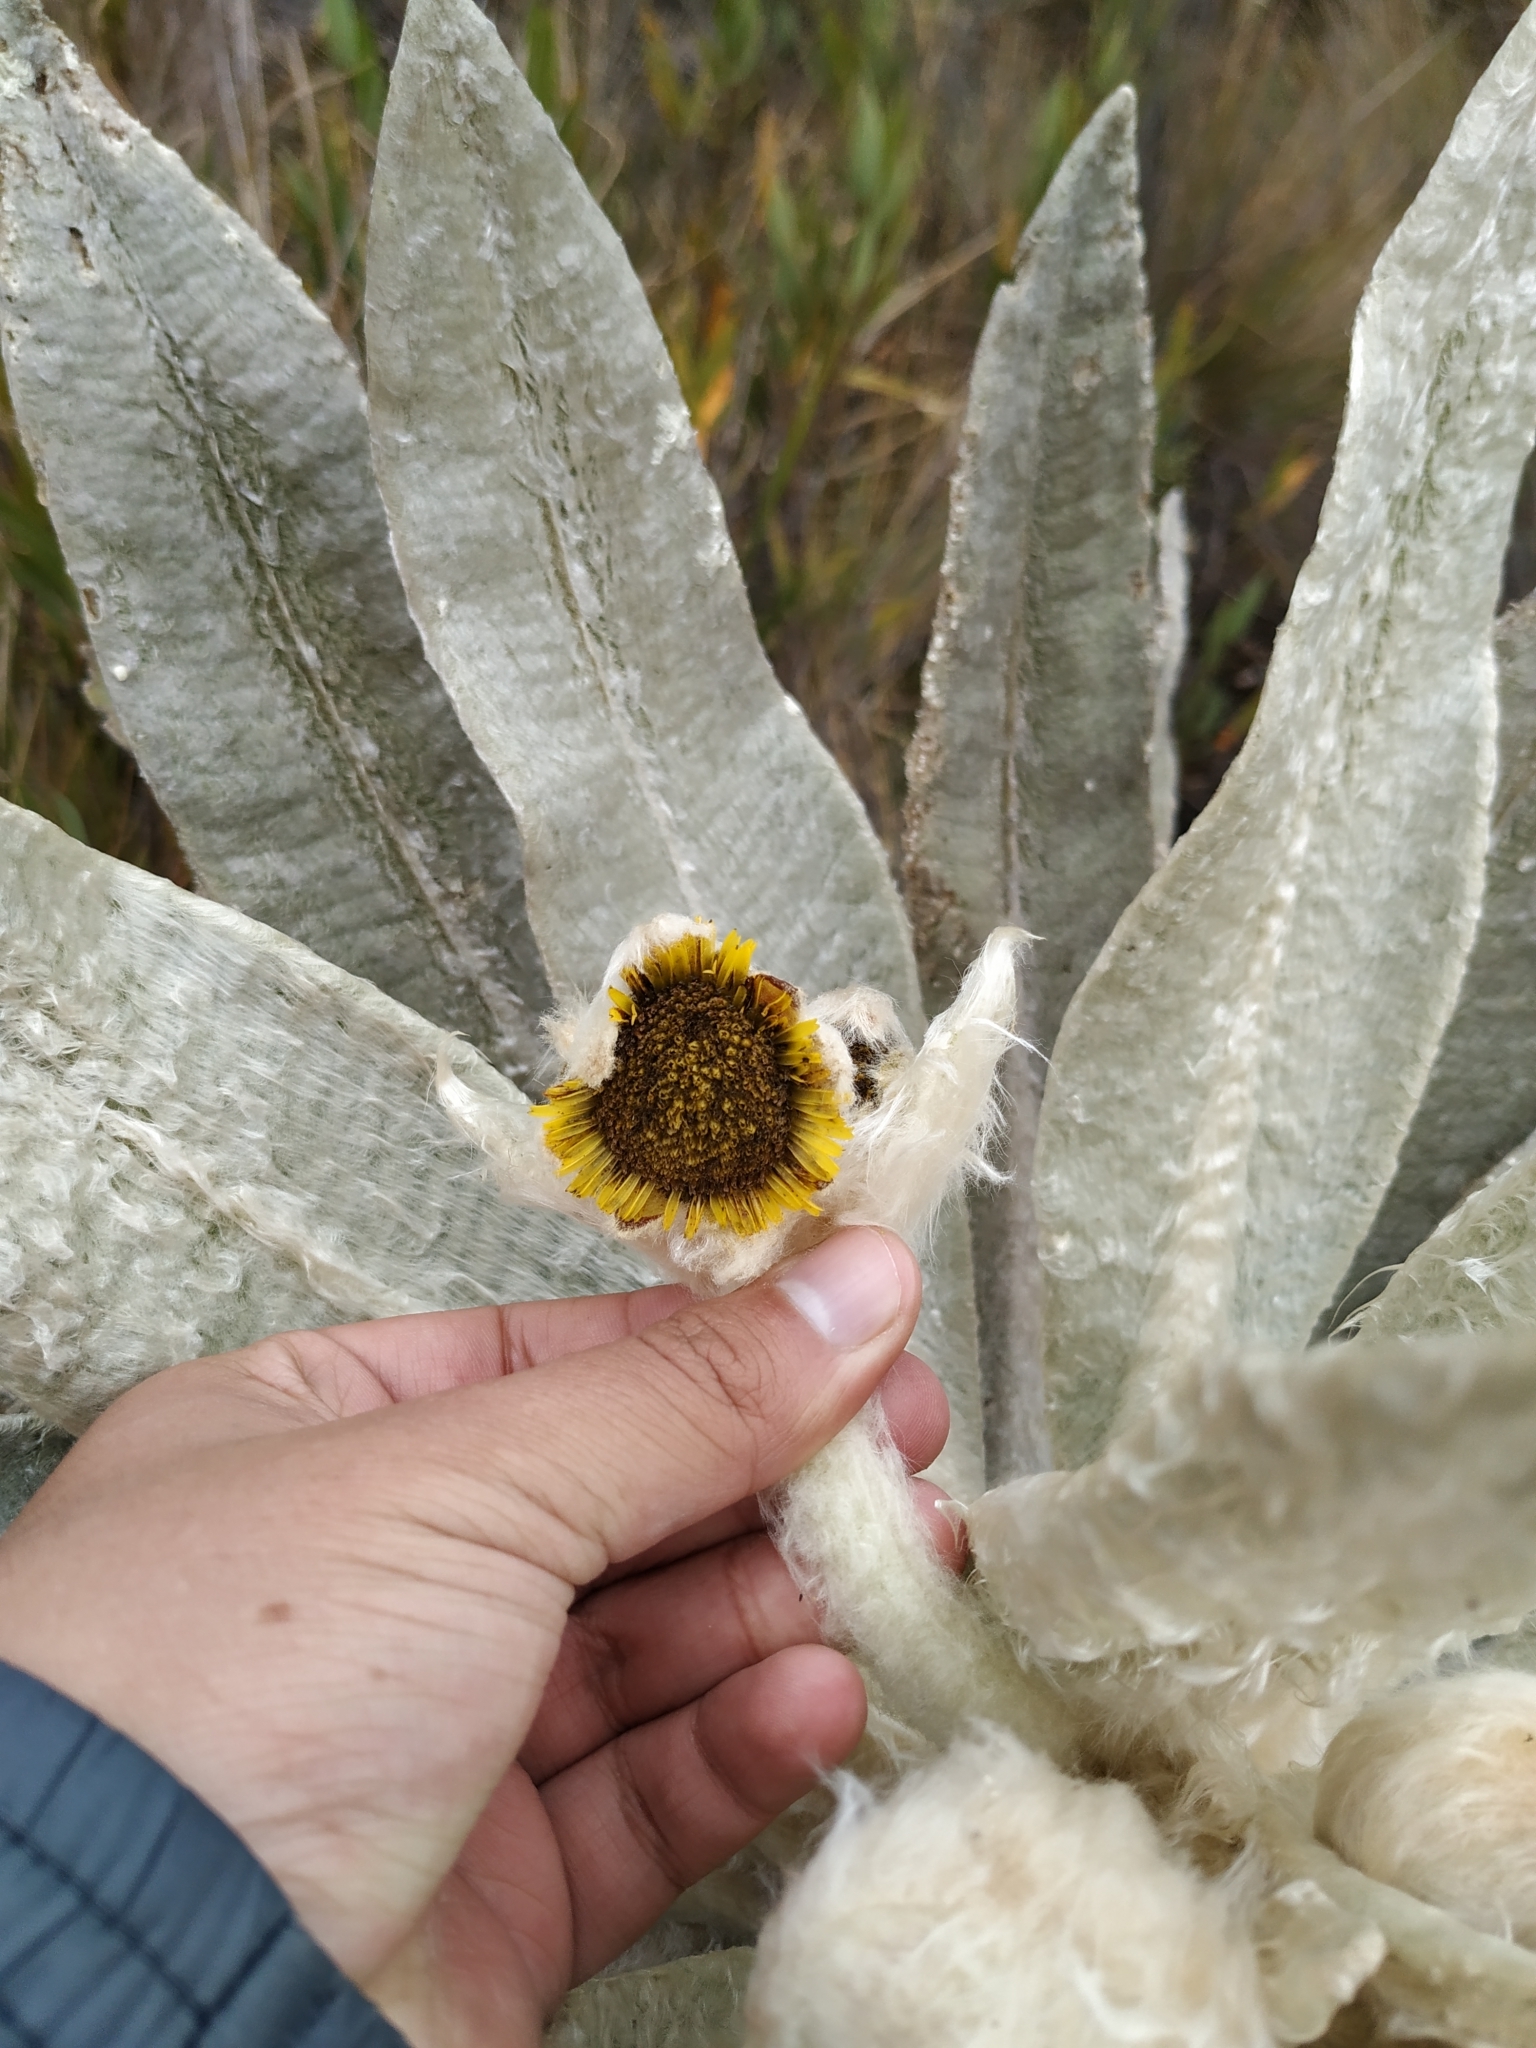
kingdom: Plantae
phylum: Tracheophyta
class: Magnoliopsida
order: Asterales
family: Asteraceae
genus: Espeletia
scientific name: Espeletia incana
